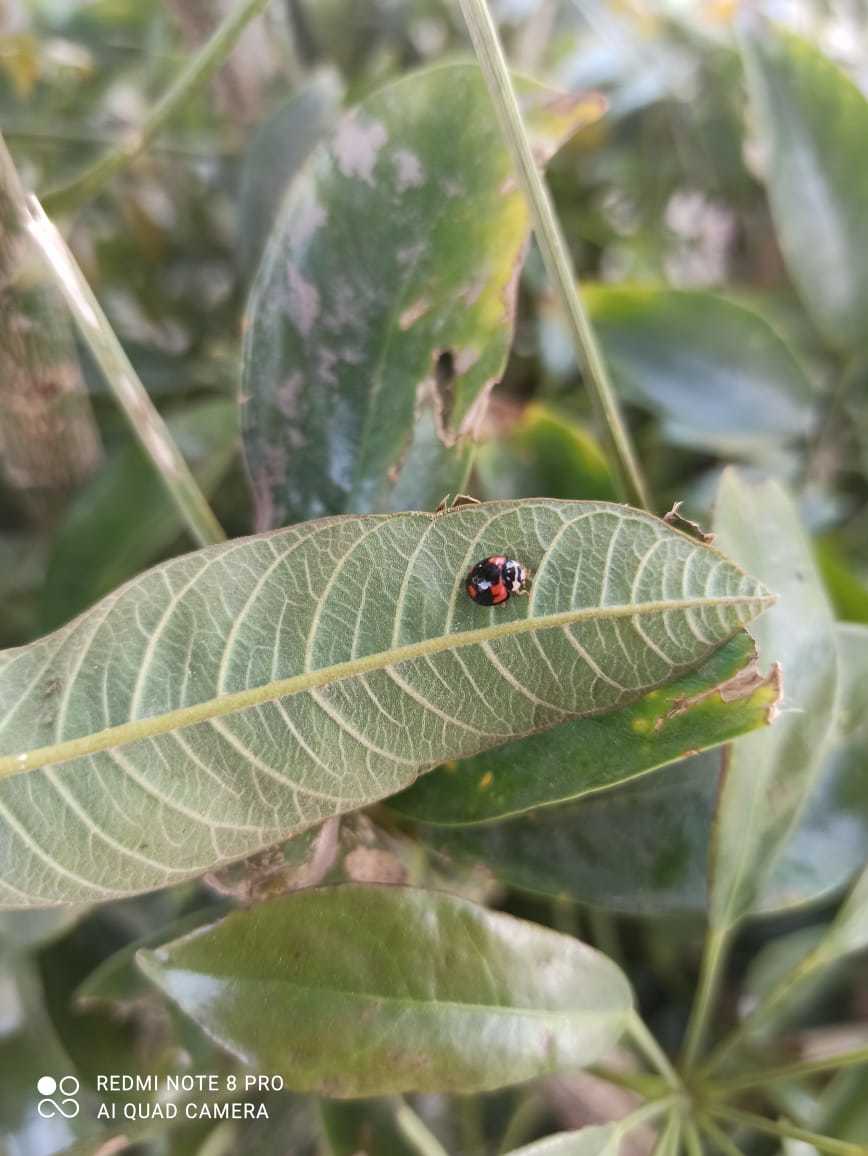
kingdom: Animalia
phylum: Arthropoda
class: Insecta
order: Coleoptera
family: Coccinellidae
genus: Cheilomenes
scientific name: Cheilomenes sexmaculata
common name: Ladybird beetle
